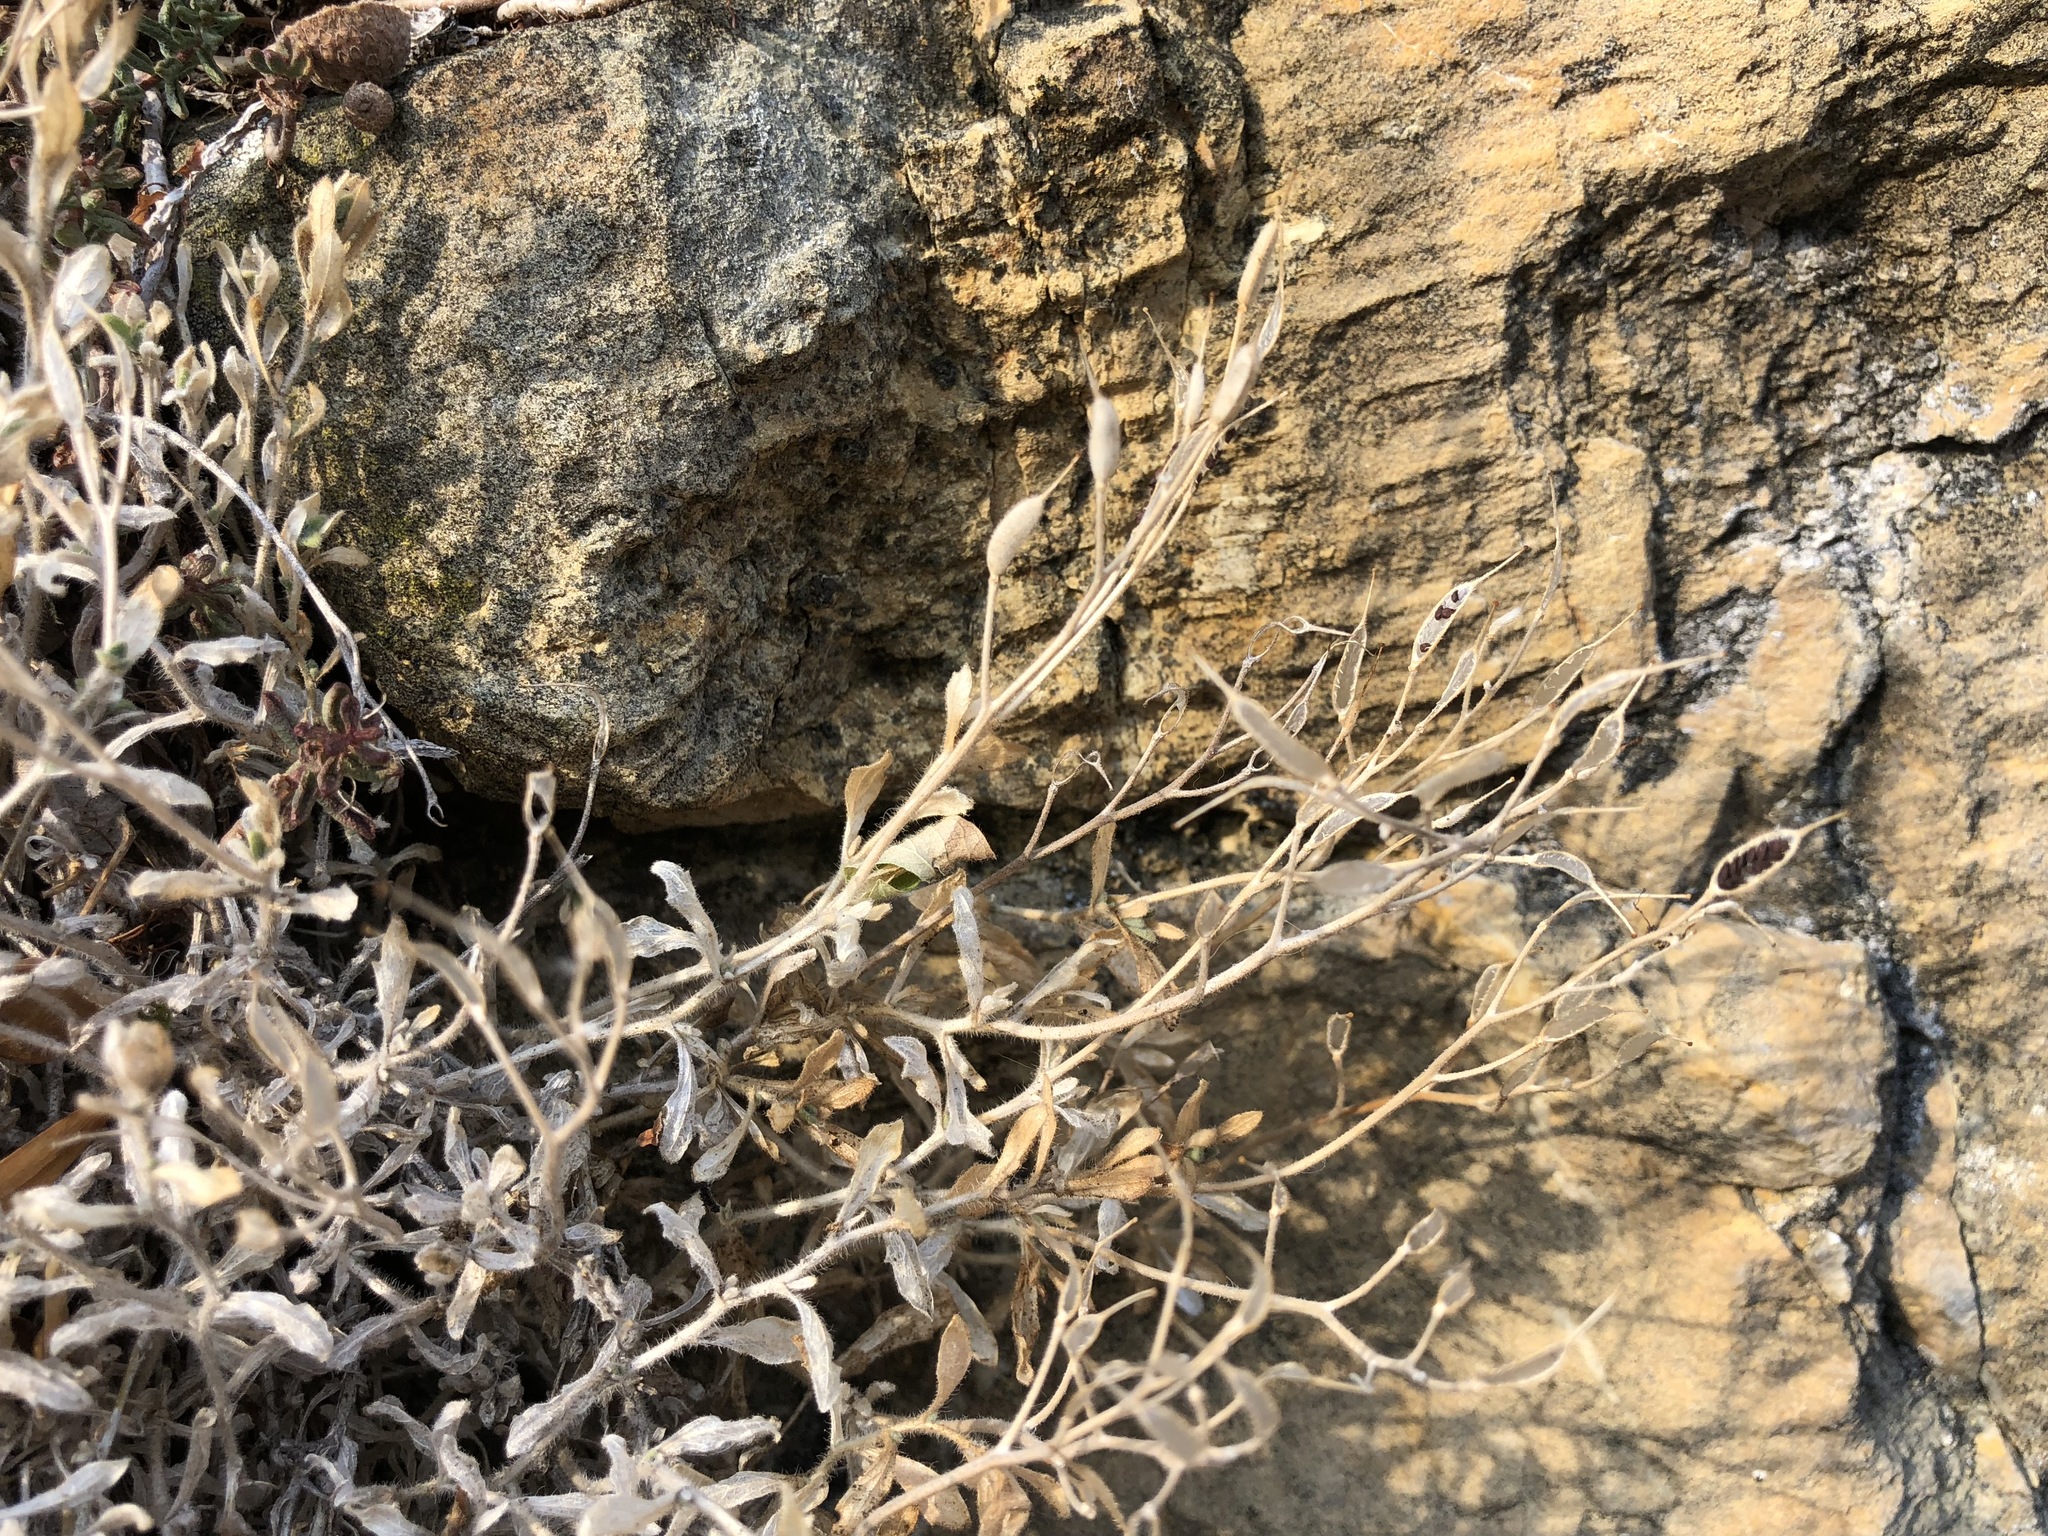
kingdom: Plantae
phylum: Tracheophyta
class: Magnoliopsida
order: Brassicales
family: Brassicaceae
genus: Aubrieta
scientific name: Aubrieta deltoidea
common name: Aubretia
